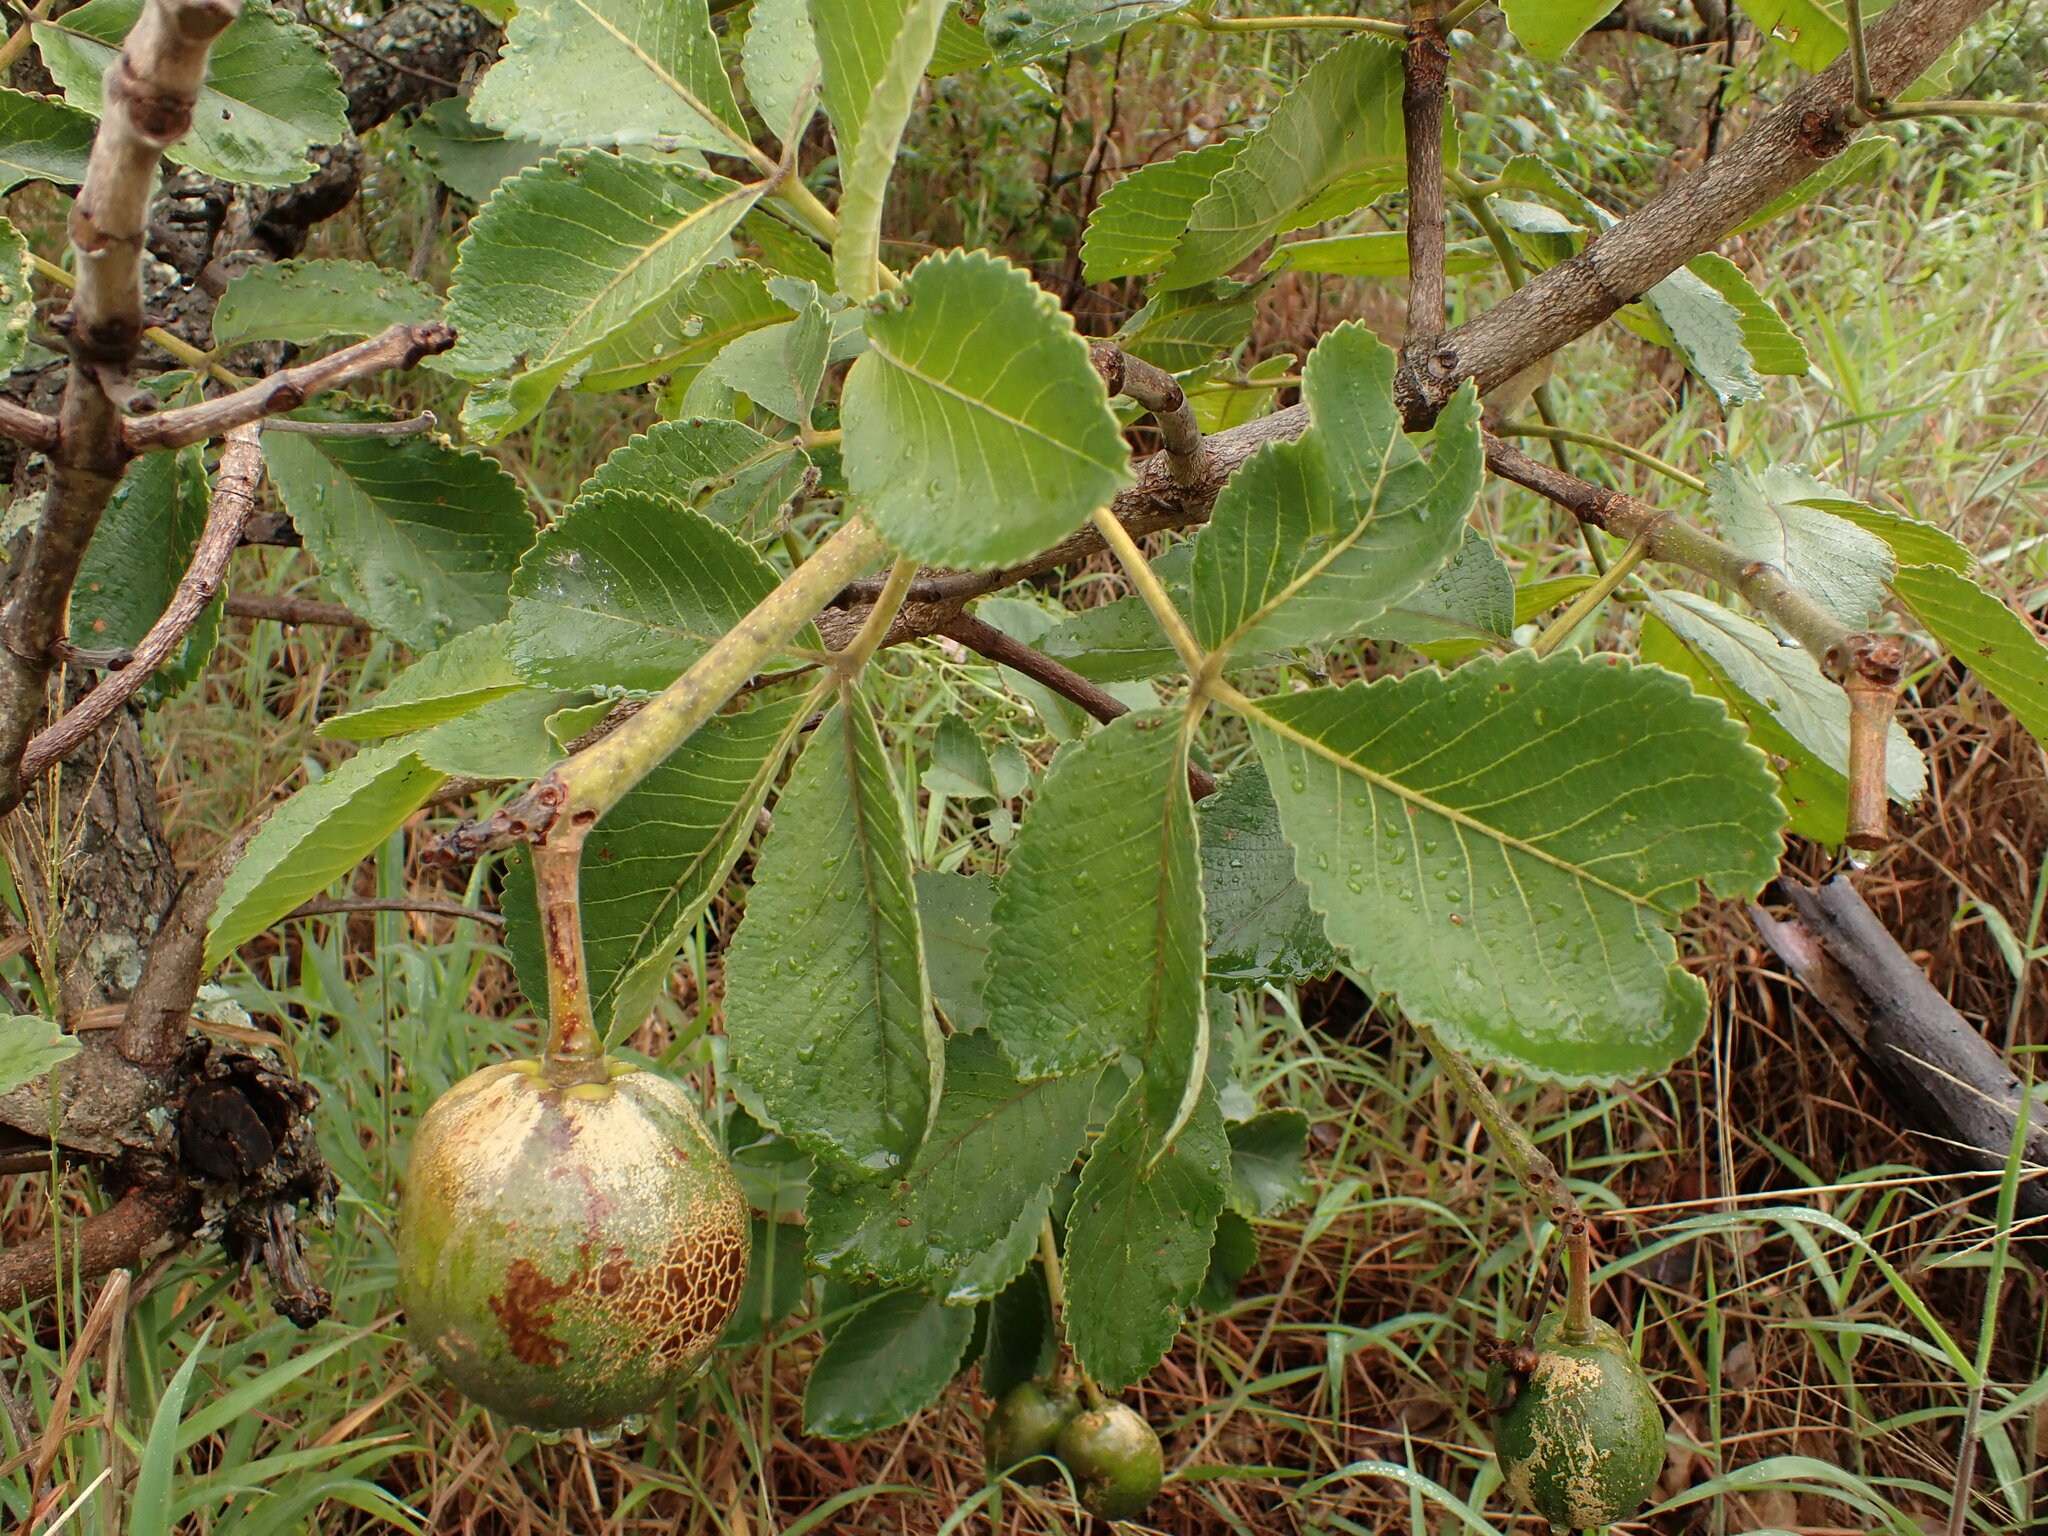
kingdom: Plantae
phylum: Tracheophyta
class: Magnoliopsida
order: Malpighiales
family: Caryocaraceae
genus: Caryocar
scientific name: Caryocar brasiliense
